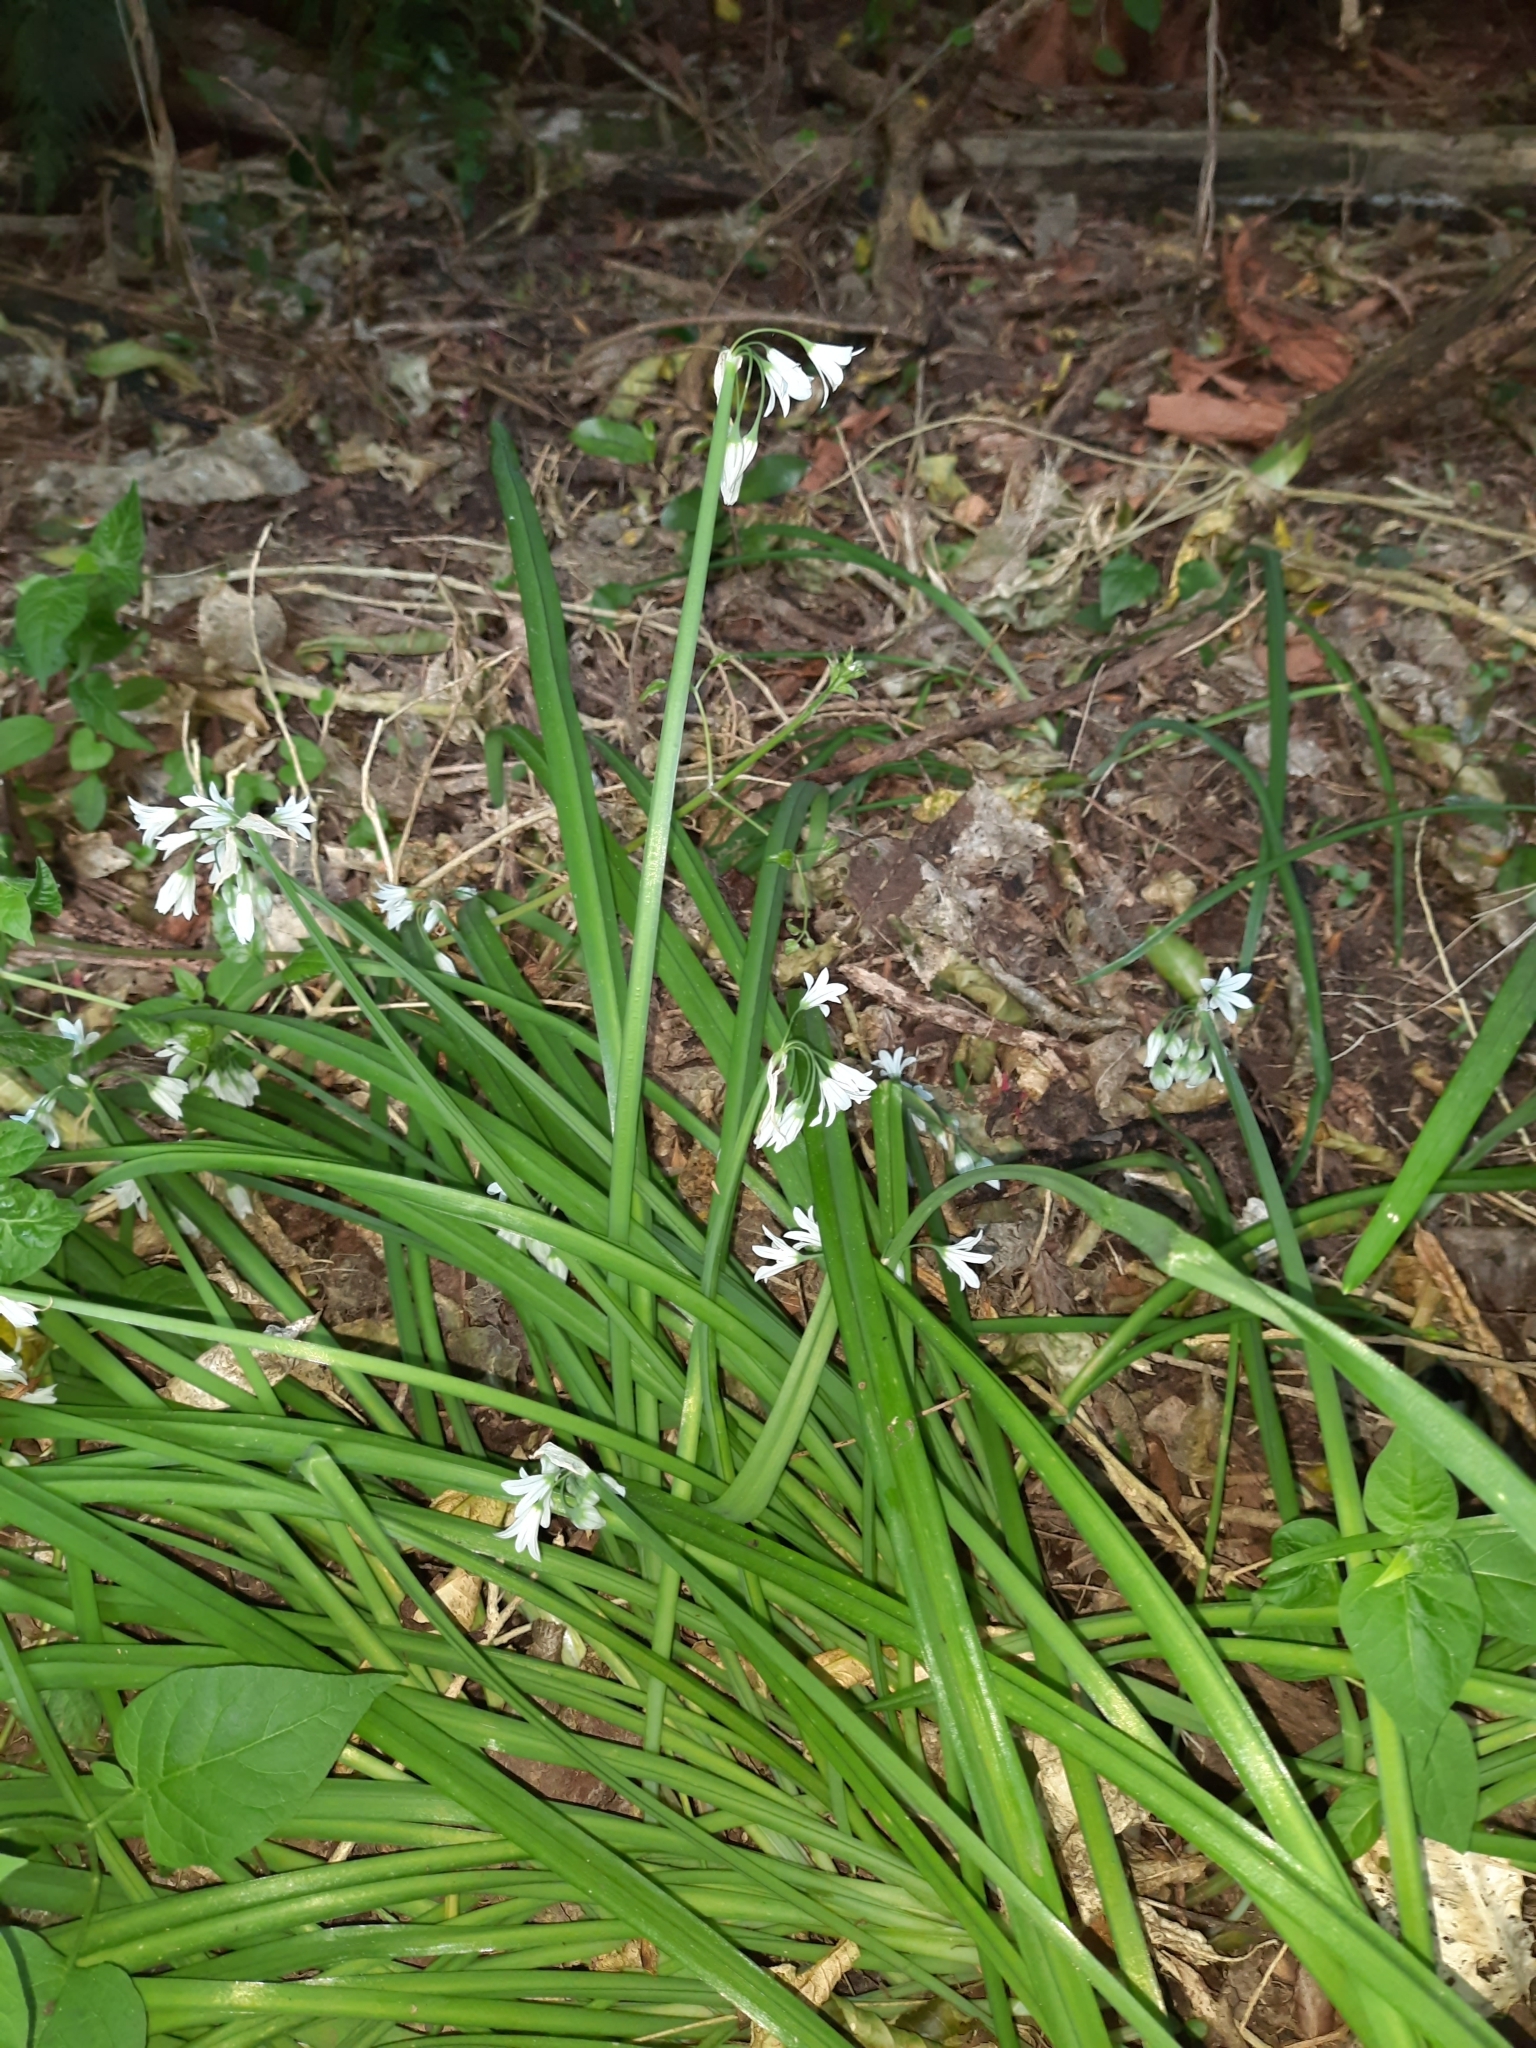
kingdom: Plantae
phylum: Tracheophyta
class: Liliopsida
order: Asparagales
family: Amaryllidaceae
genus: Allium
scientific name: Allium triquetrum
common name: Three-cornered garlic
